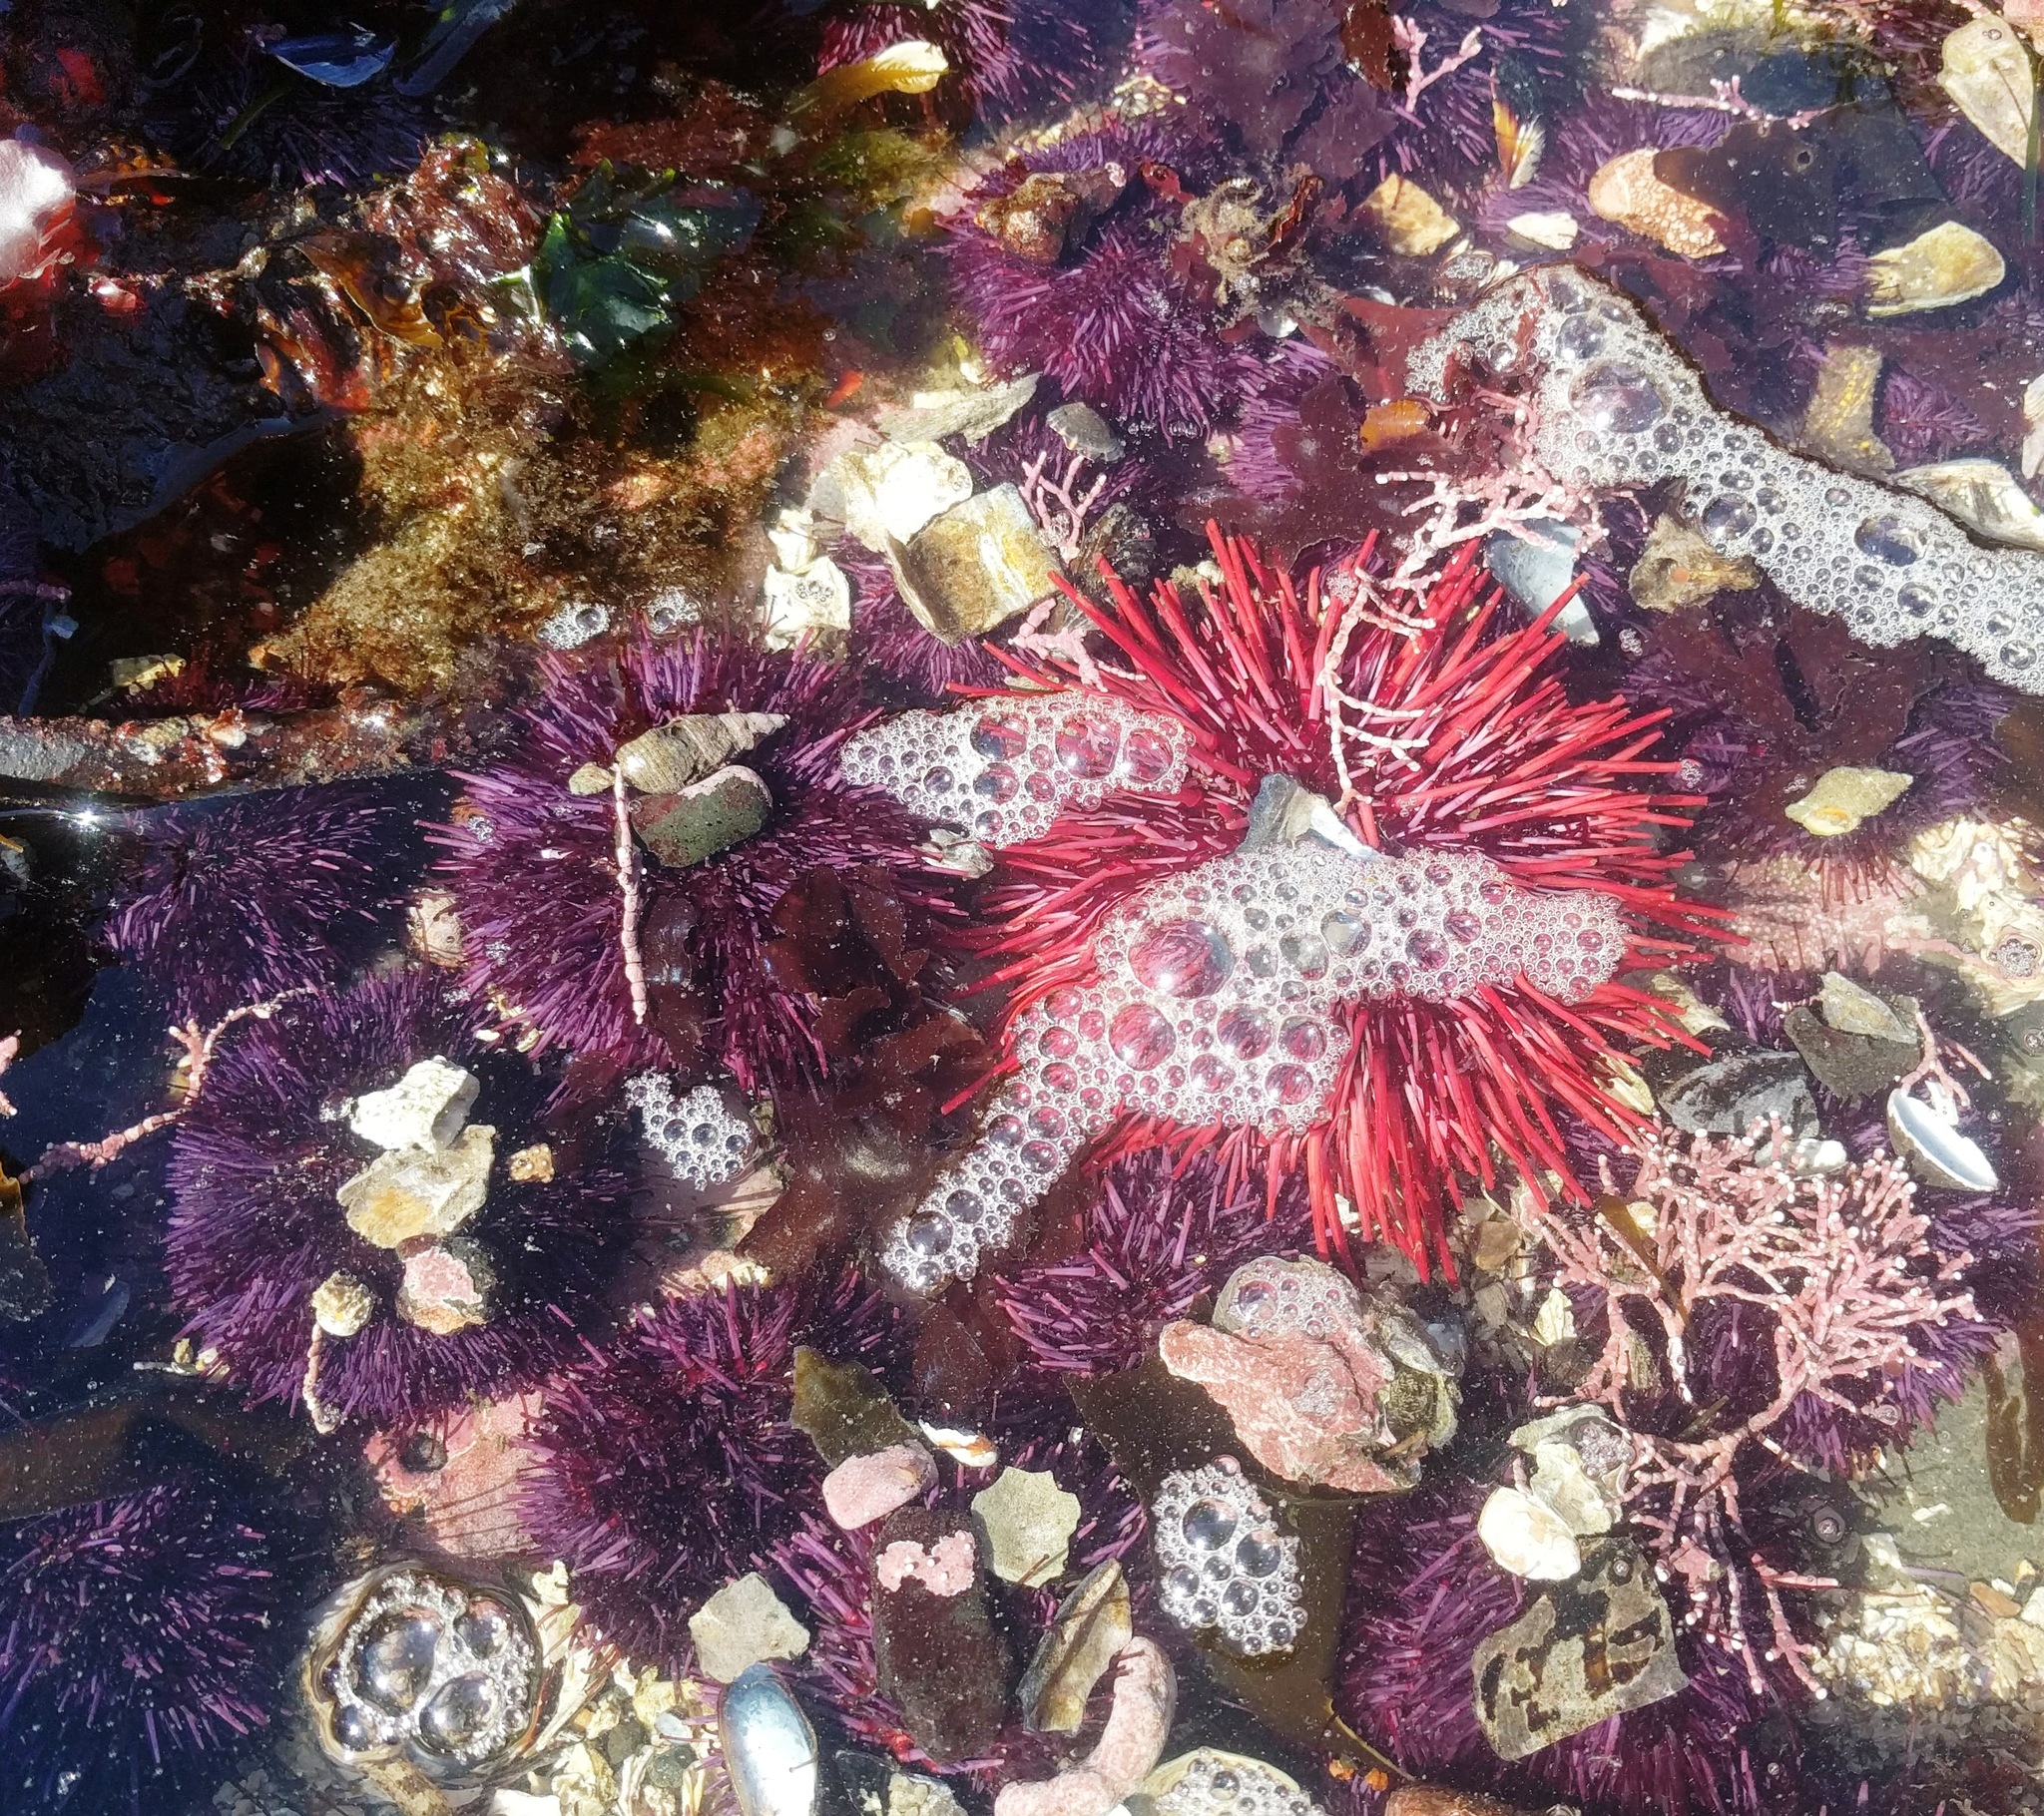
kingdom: Animalia
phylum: Echinodermata
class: Echinoidea
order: Camarodonta
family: Strongylocentrotidae
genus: Mesocentrotus
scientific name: Mesocentrotus franciscanus
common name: Red sea urchin
